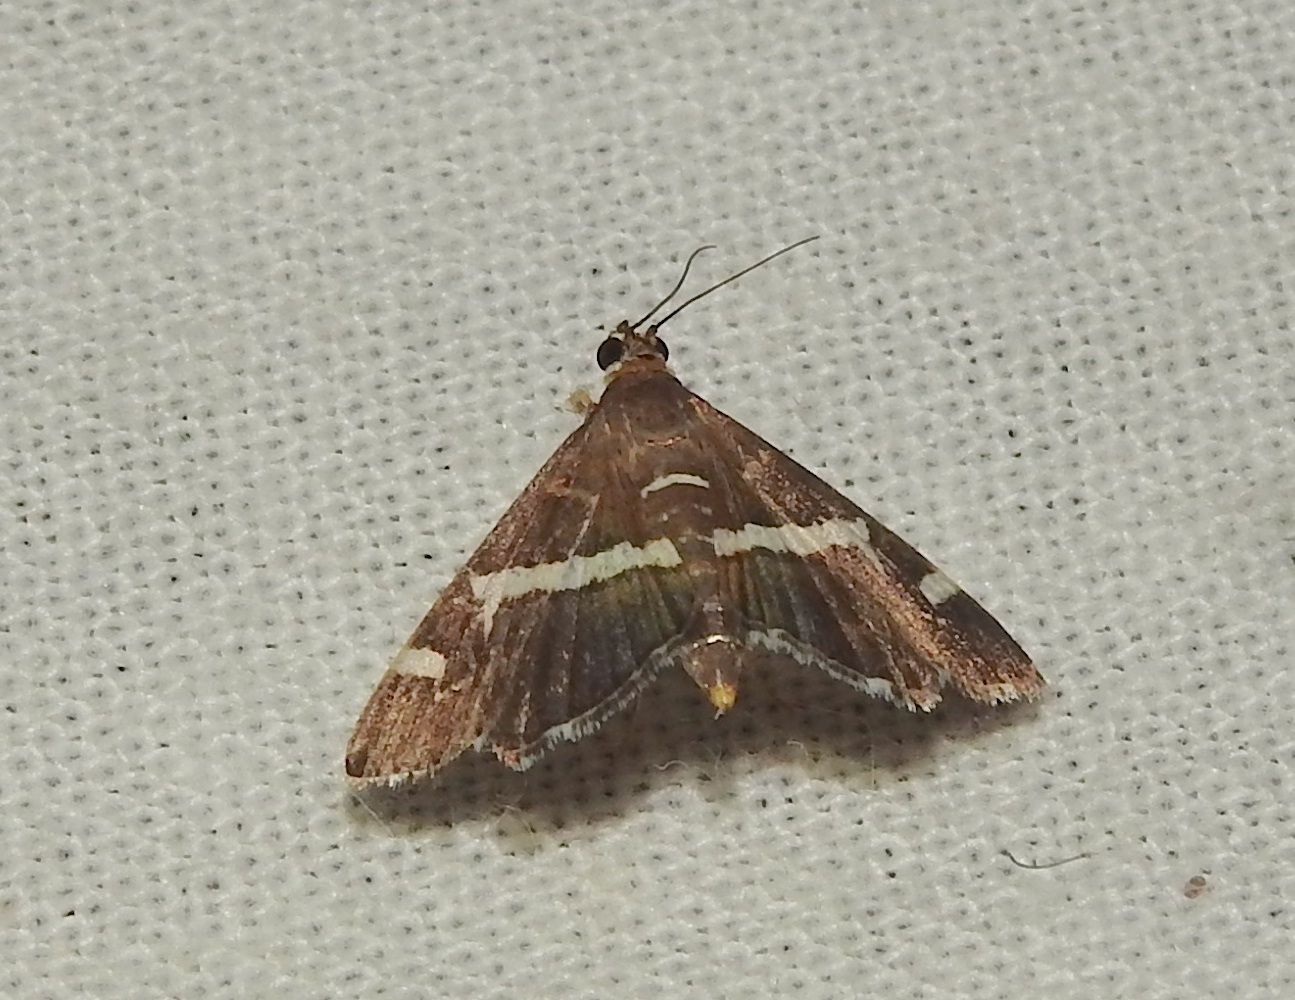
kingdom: Animalia
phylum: Arthropoda
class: Insecta
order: Lepidoptera
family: Crambidae
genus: Spoladea
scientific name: Spoladea recurvalis
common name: Beet webworm moth
